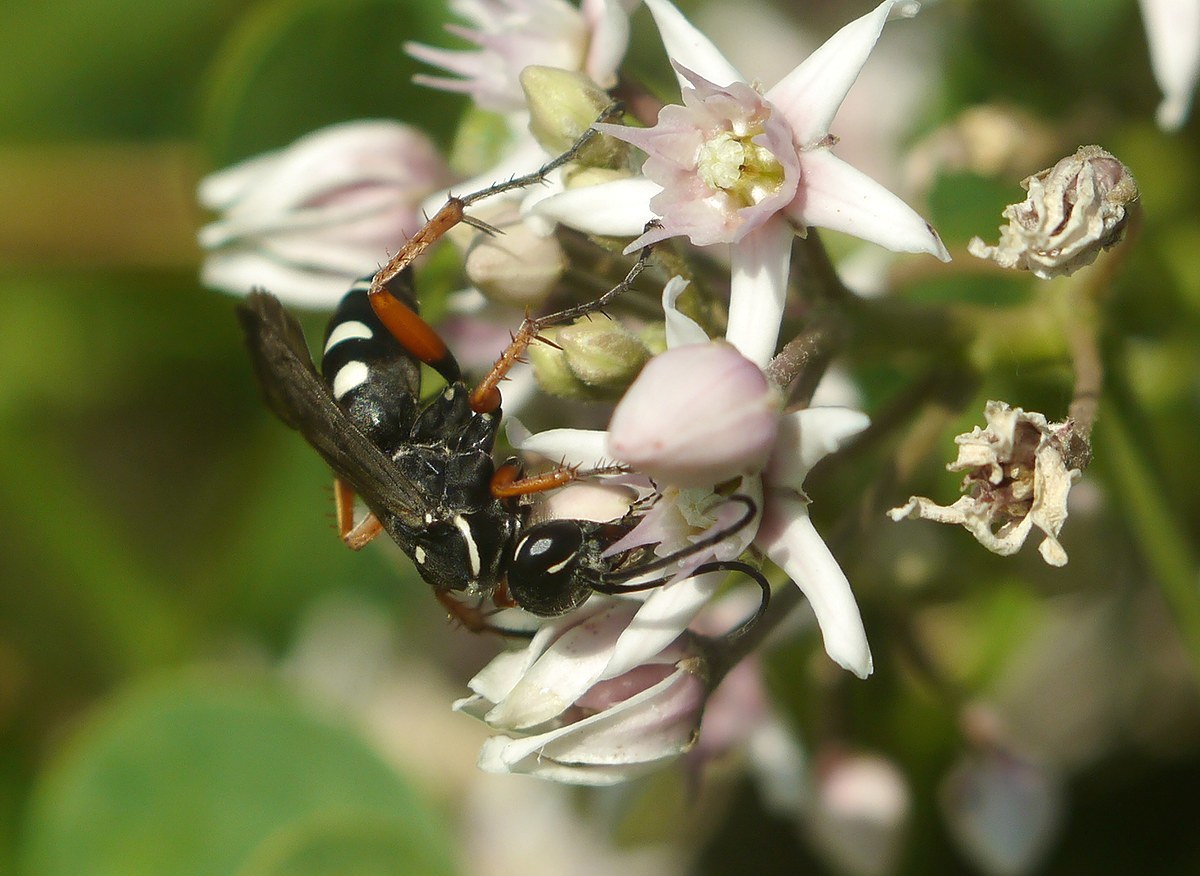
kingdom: Animalia
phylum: Arthropoda
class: Insecta
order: Hymenoptera
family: Pompilidae
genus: Episyron
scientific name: Episyron albonotatum
